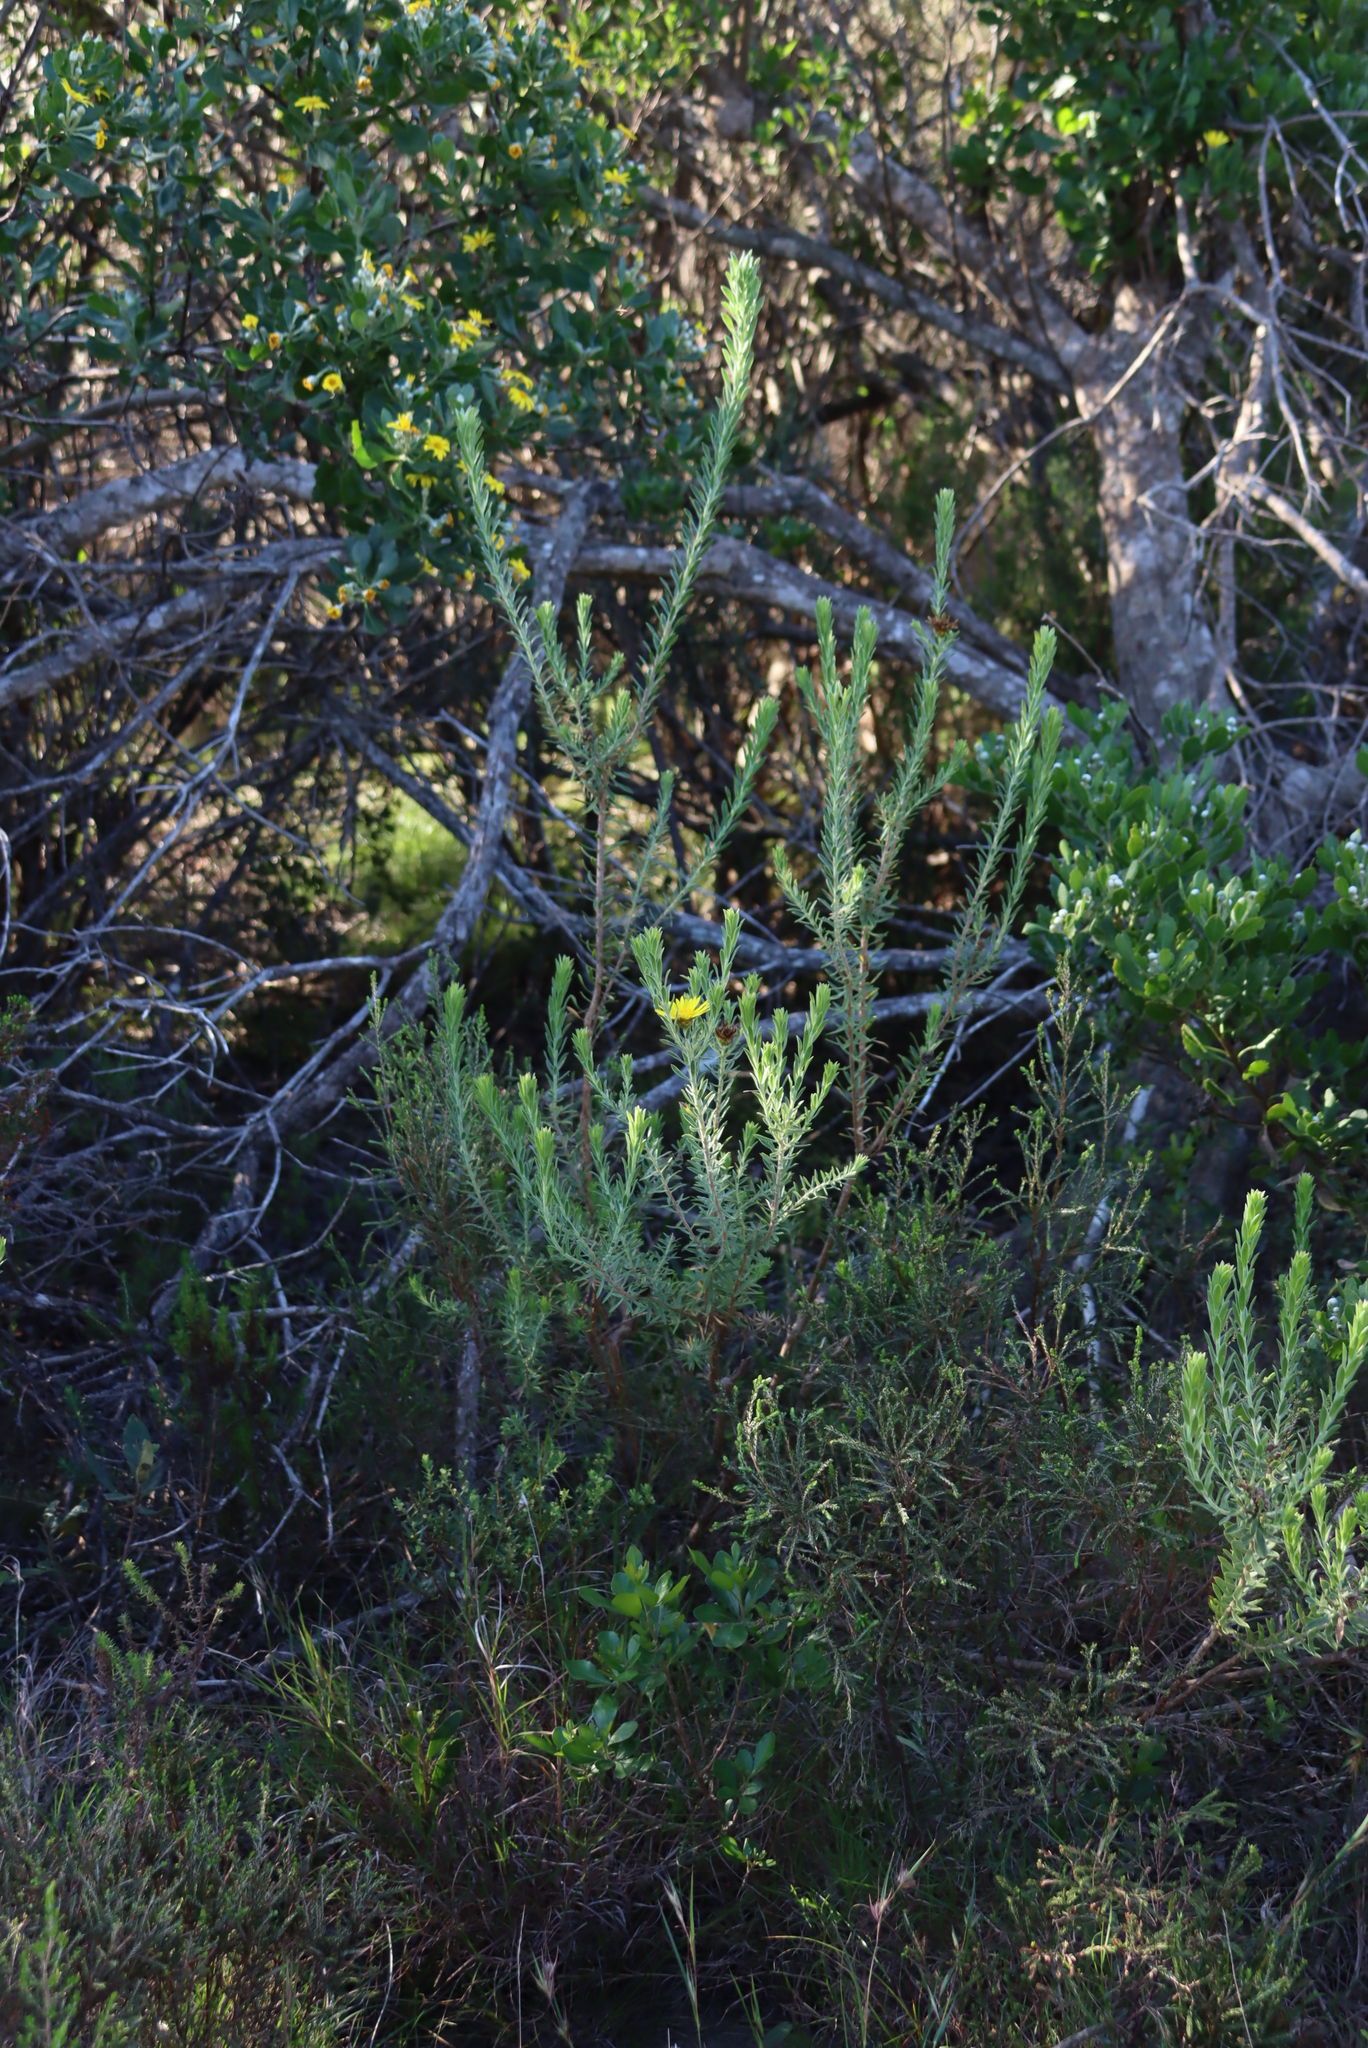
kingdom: Plantae
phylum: Tracheophyta
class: Magnoliopsida
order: Asterales
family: Asteraceae
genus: Oedera
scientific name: Oedera calycina
